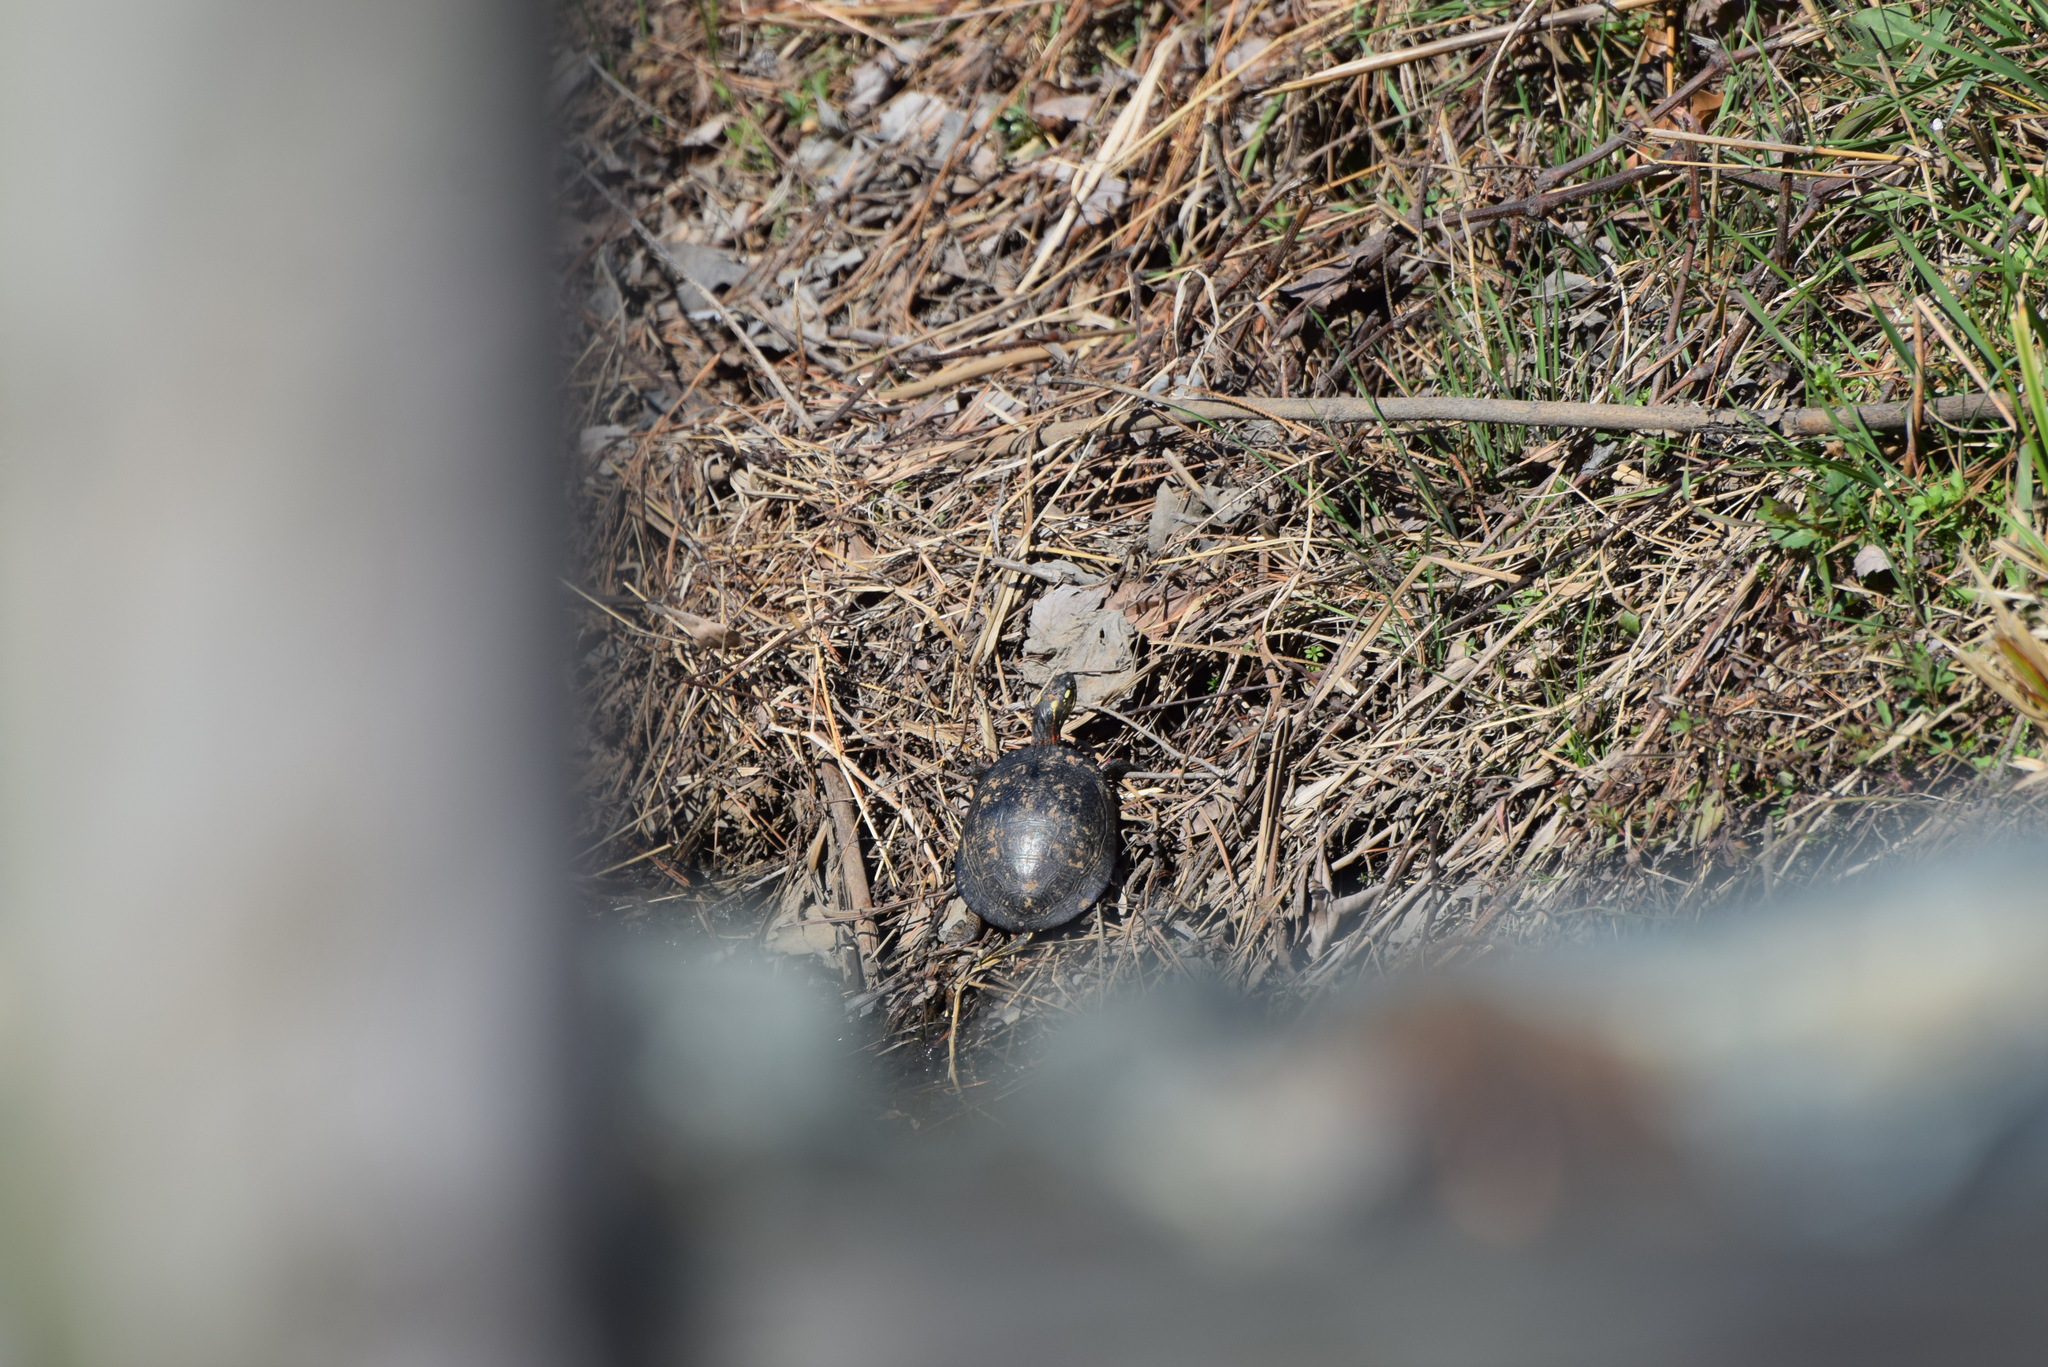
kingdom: Animalia
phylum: Chordata
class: Testudines
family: Emydidae
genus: Chrysemys
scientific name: Chrysemys picta
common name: Painted turtle
